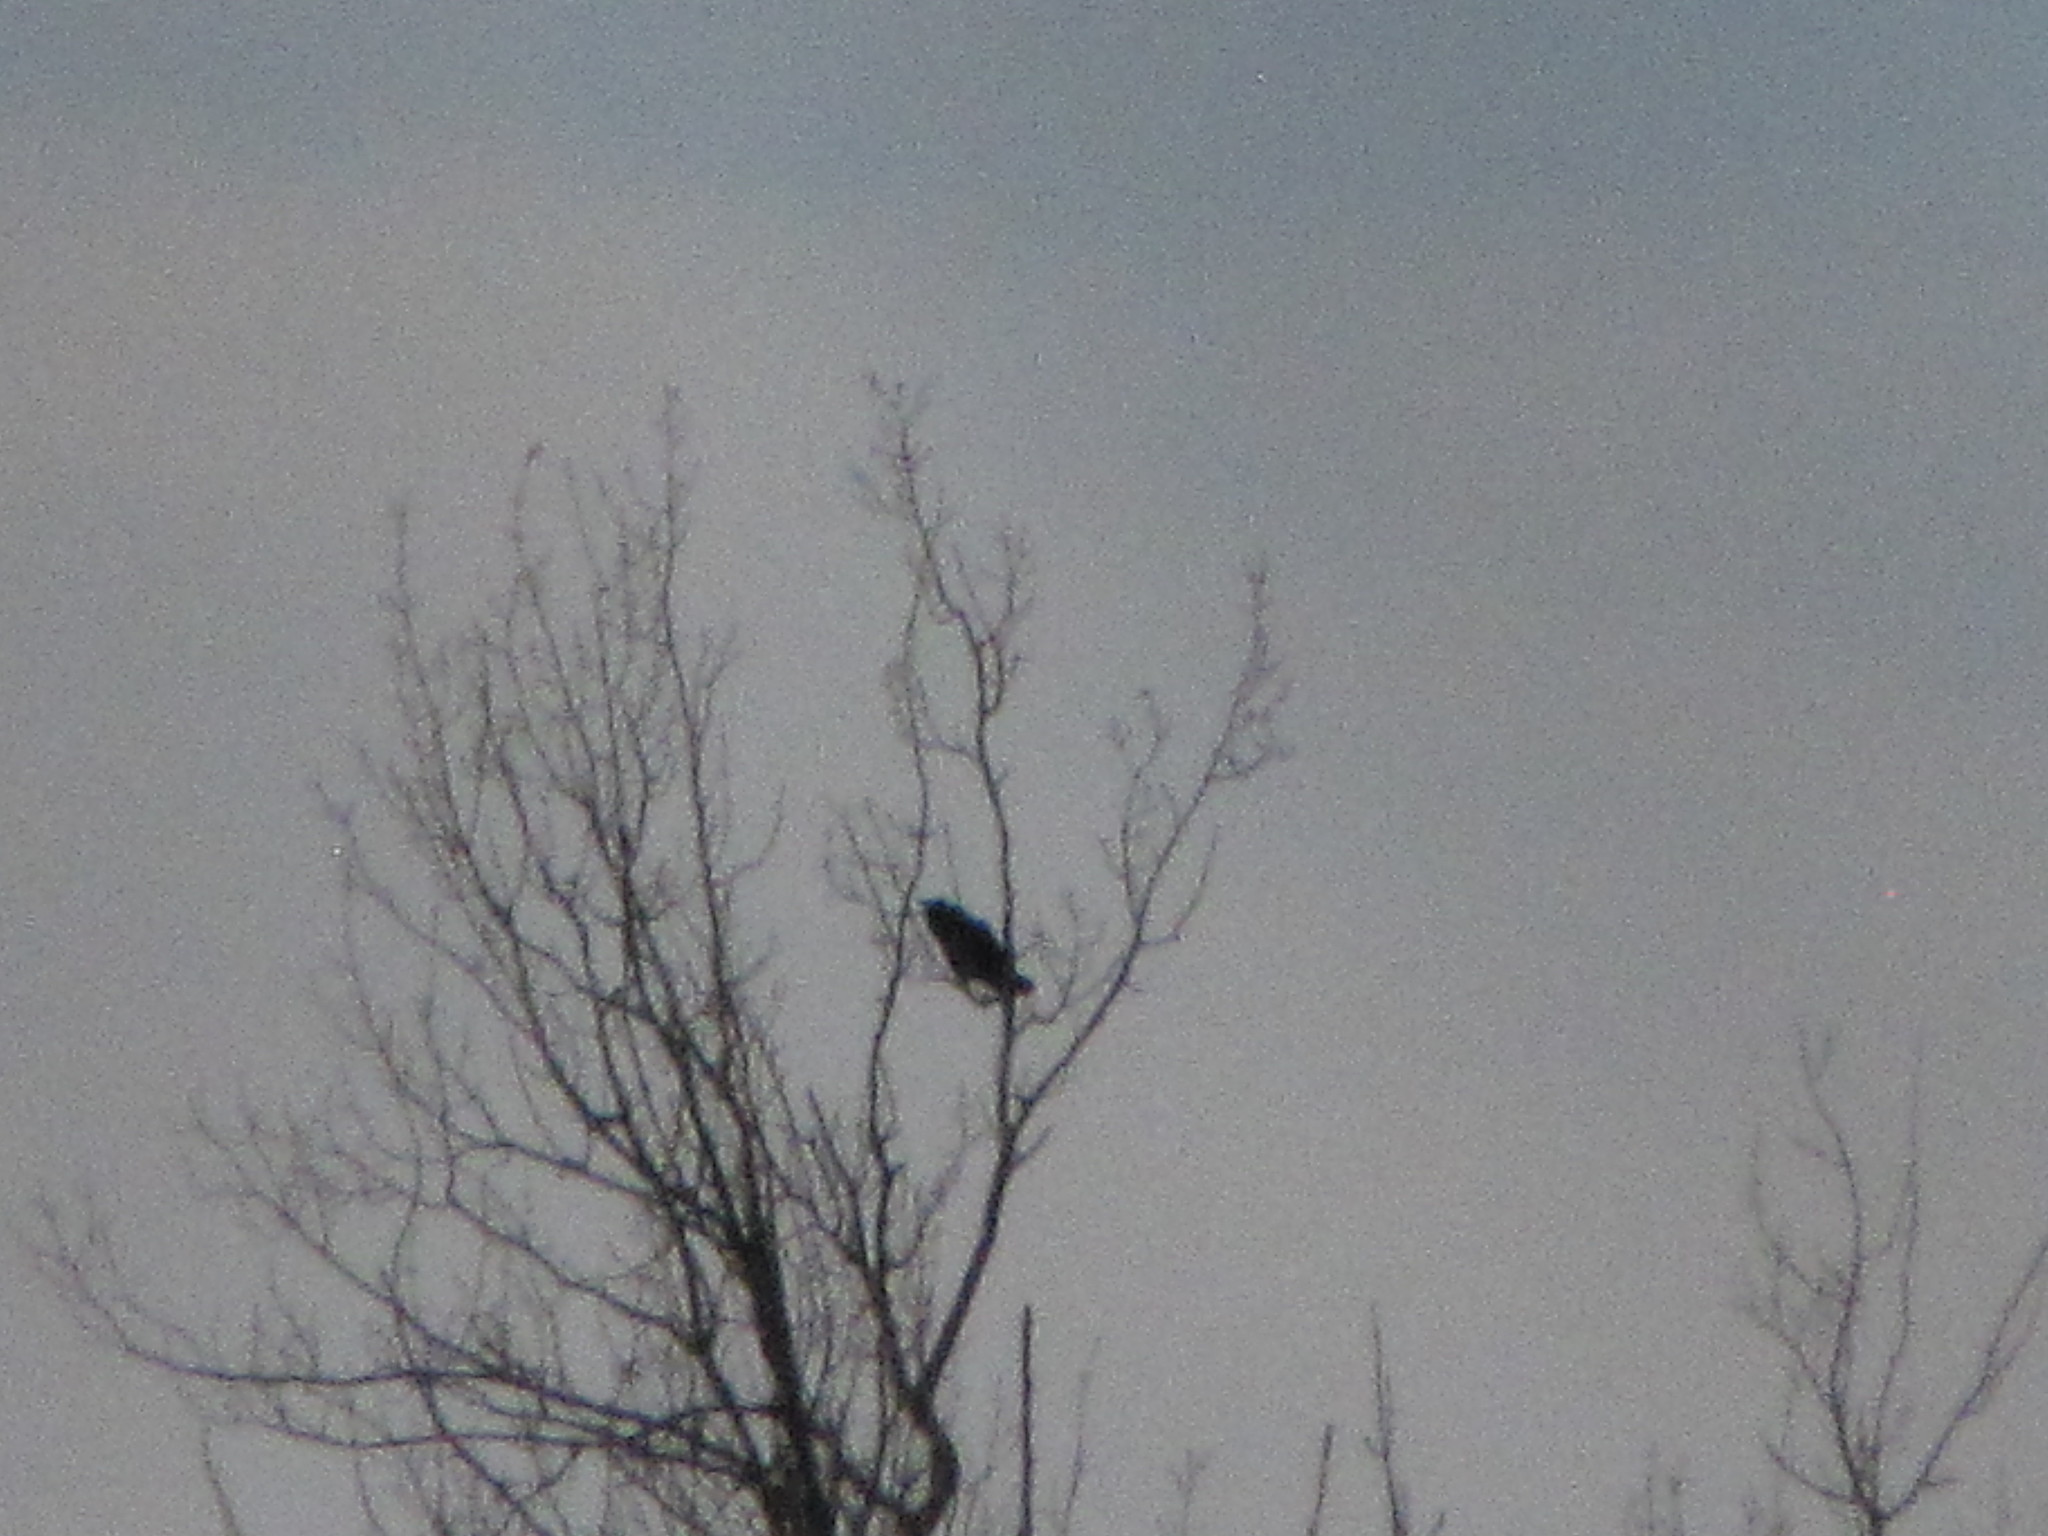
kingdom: Animalia
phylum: Chordata
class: Aves
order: Passeriformes
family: Icteridae
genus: Agelaius
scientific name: Agelaius phoeniceus
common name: Red-winged blackbird
